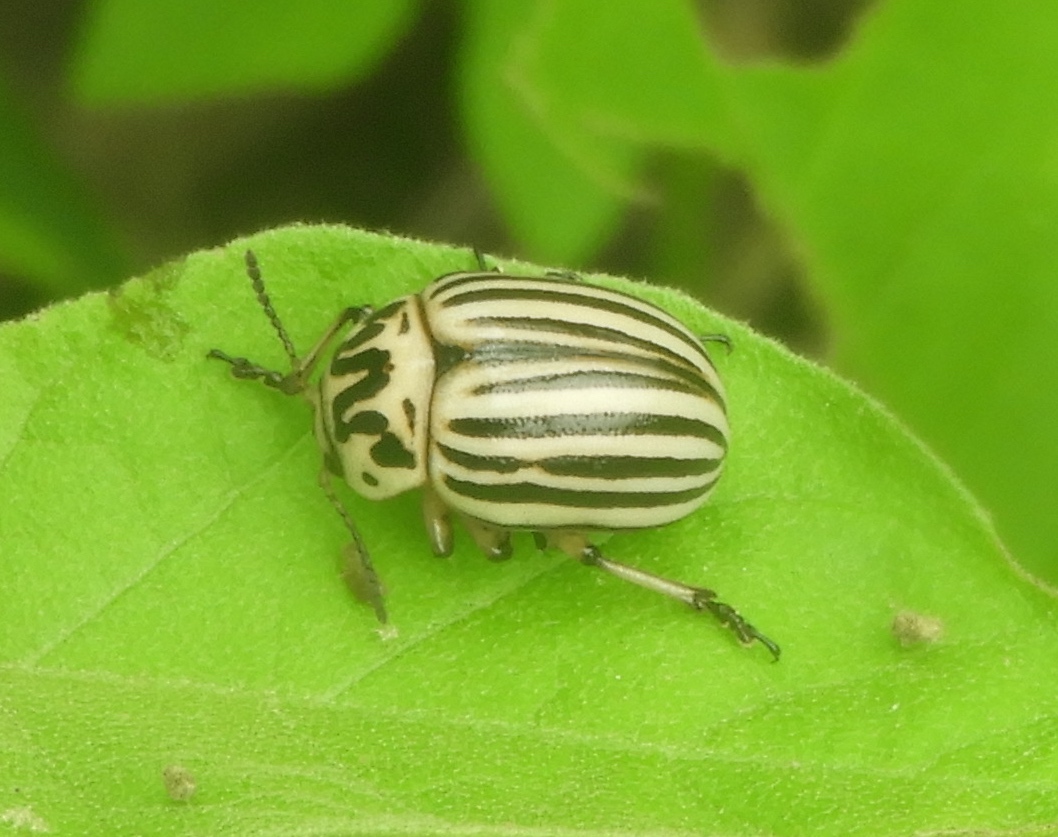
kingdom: Animalia
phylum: Arthropoda
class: Insecta
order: Coleoptera
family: Chrysomelidae
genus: Leptinotarsa
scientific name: Leptinotarsa
